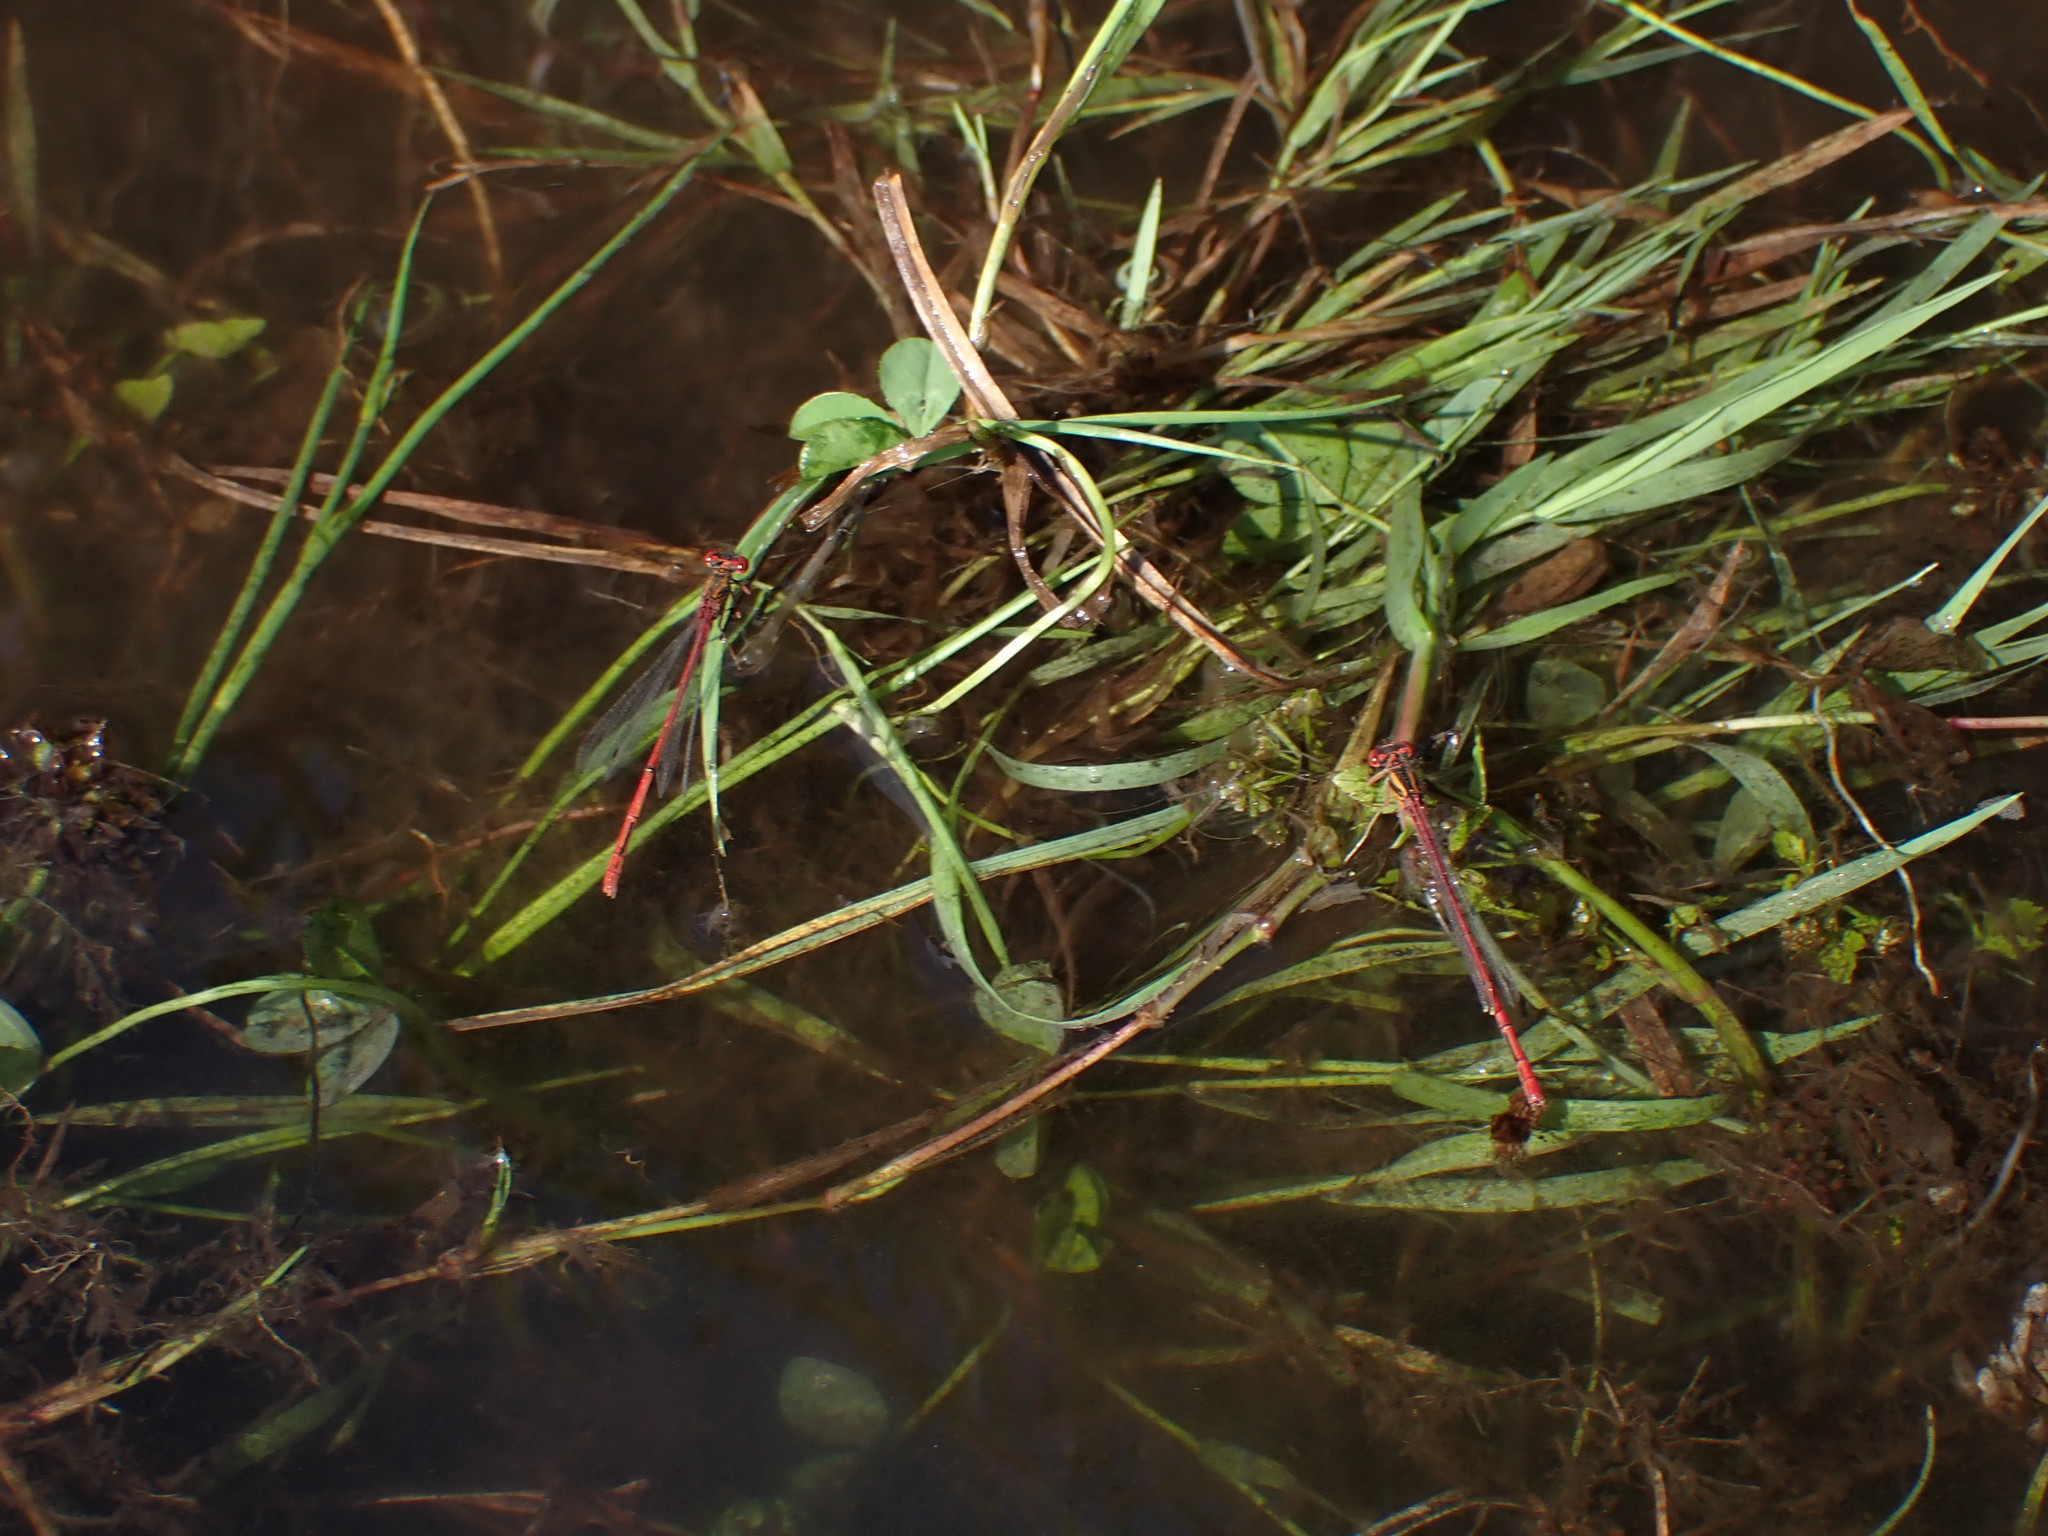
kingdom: Animalia
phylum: Arthropoda
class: Insecta
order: Odonata
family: Coenagrionidae
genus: Xanthocnemis
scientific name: Xanthocnemis zealandica
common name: Common redcoat damselfly
